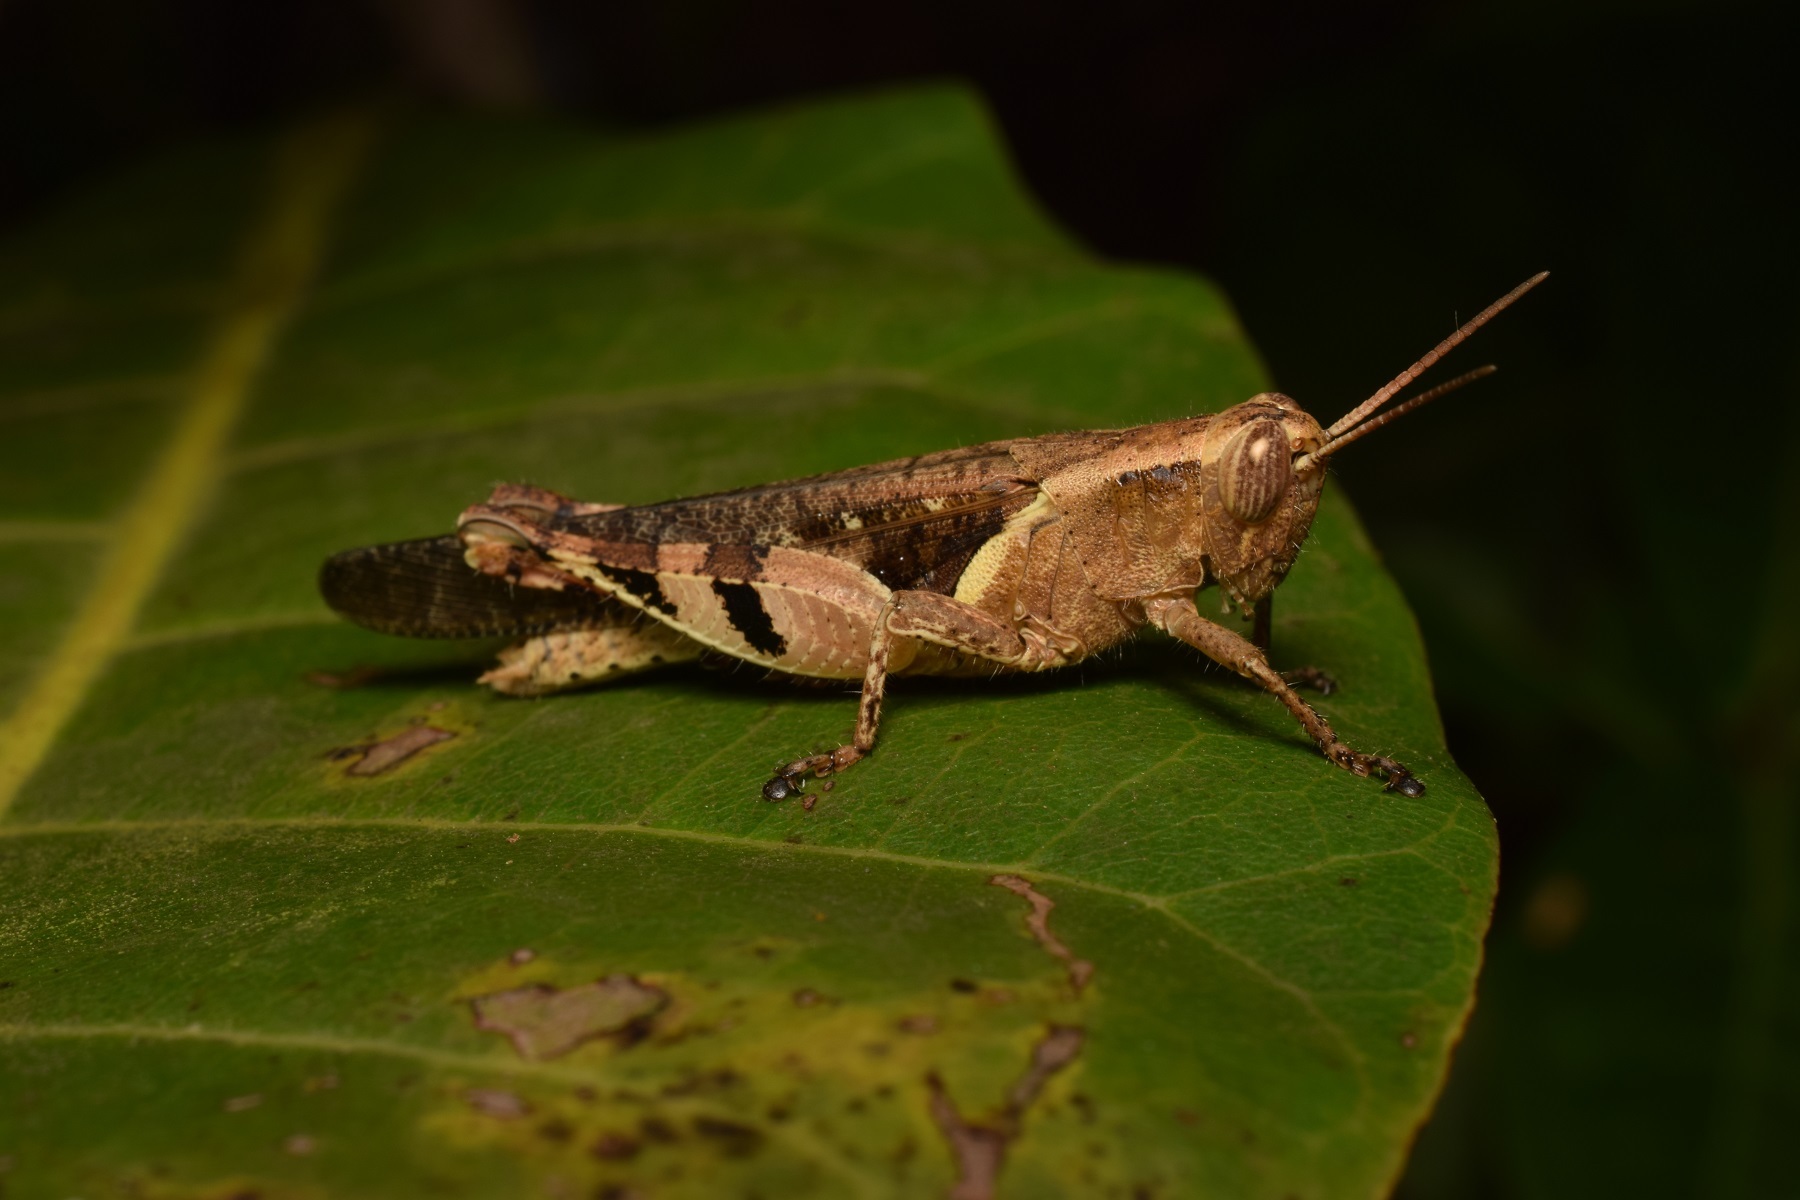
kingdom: Animalia
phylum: Arthropoda
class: Insecta
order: Orthoptera
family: Acrididae
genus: Xenocatantops
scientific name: Xenocatantops henryi
